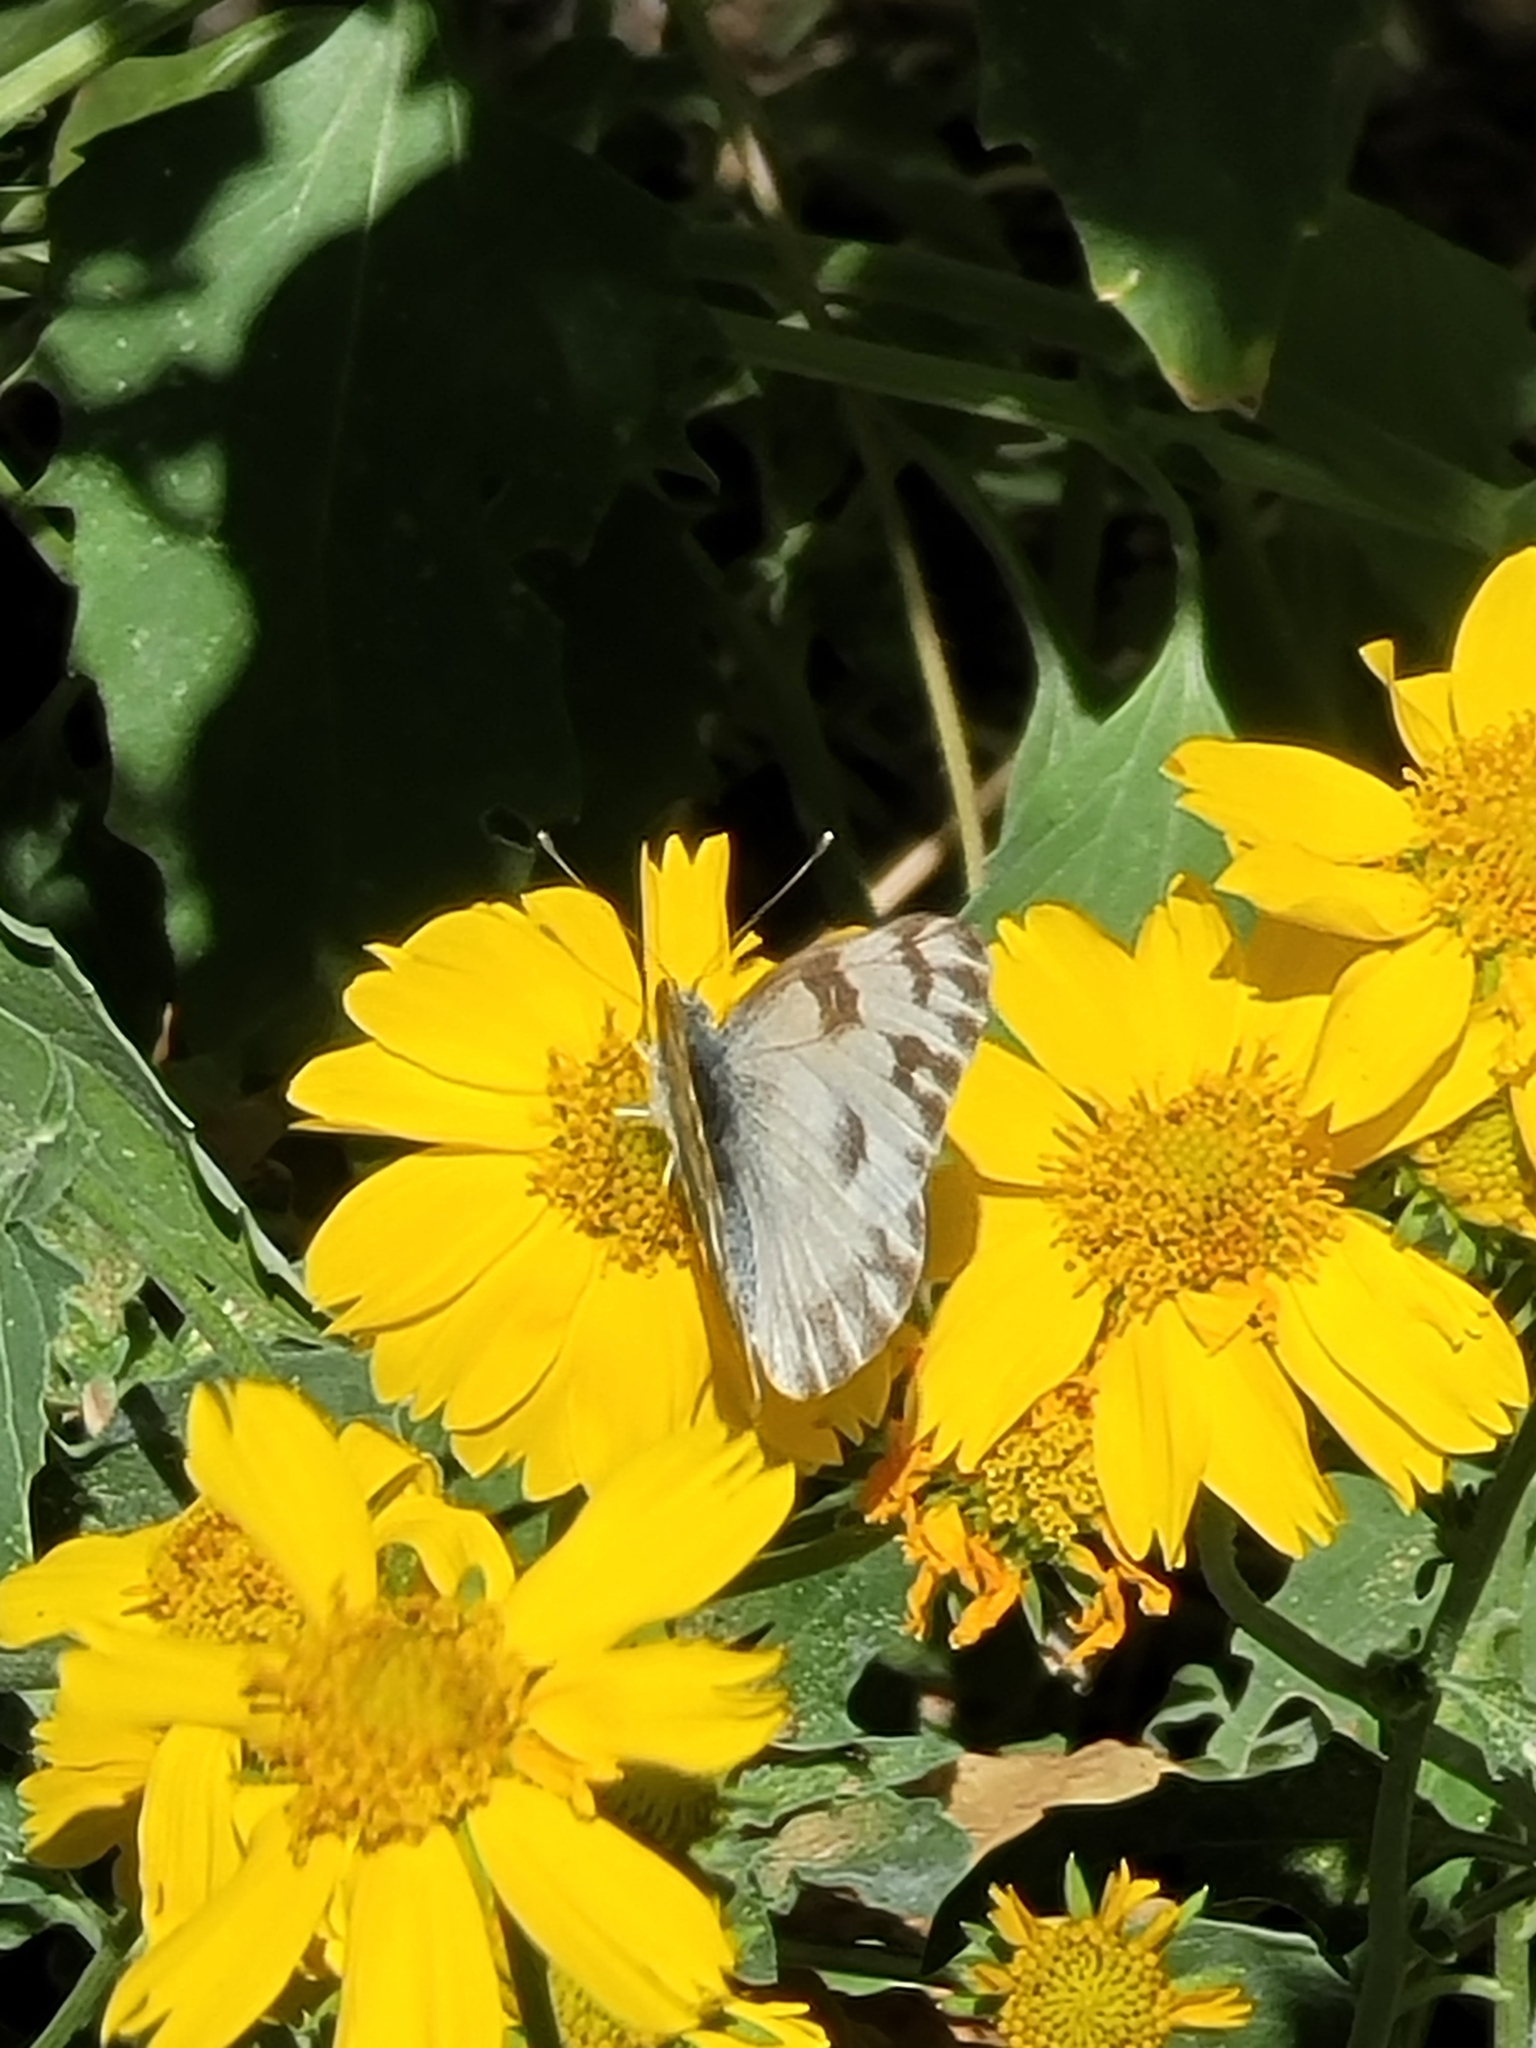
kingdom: Animalia
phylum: Arthropoda
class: Insecta
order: Lepidoptera
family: Pieridae
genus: Pontia
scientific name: Pontia protodice
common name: Checkered white
